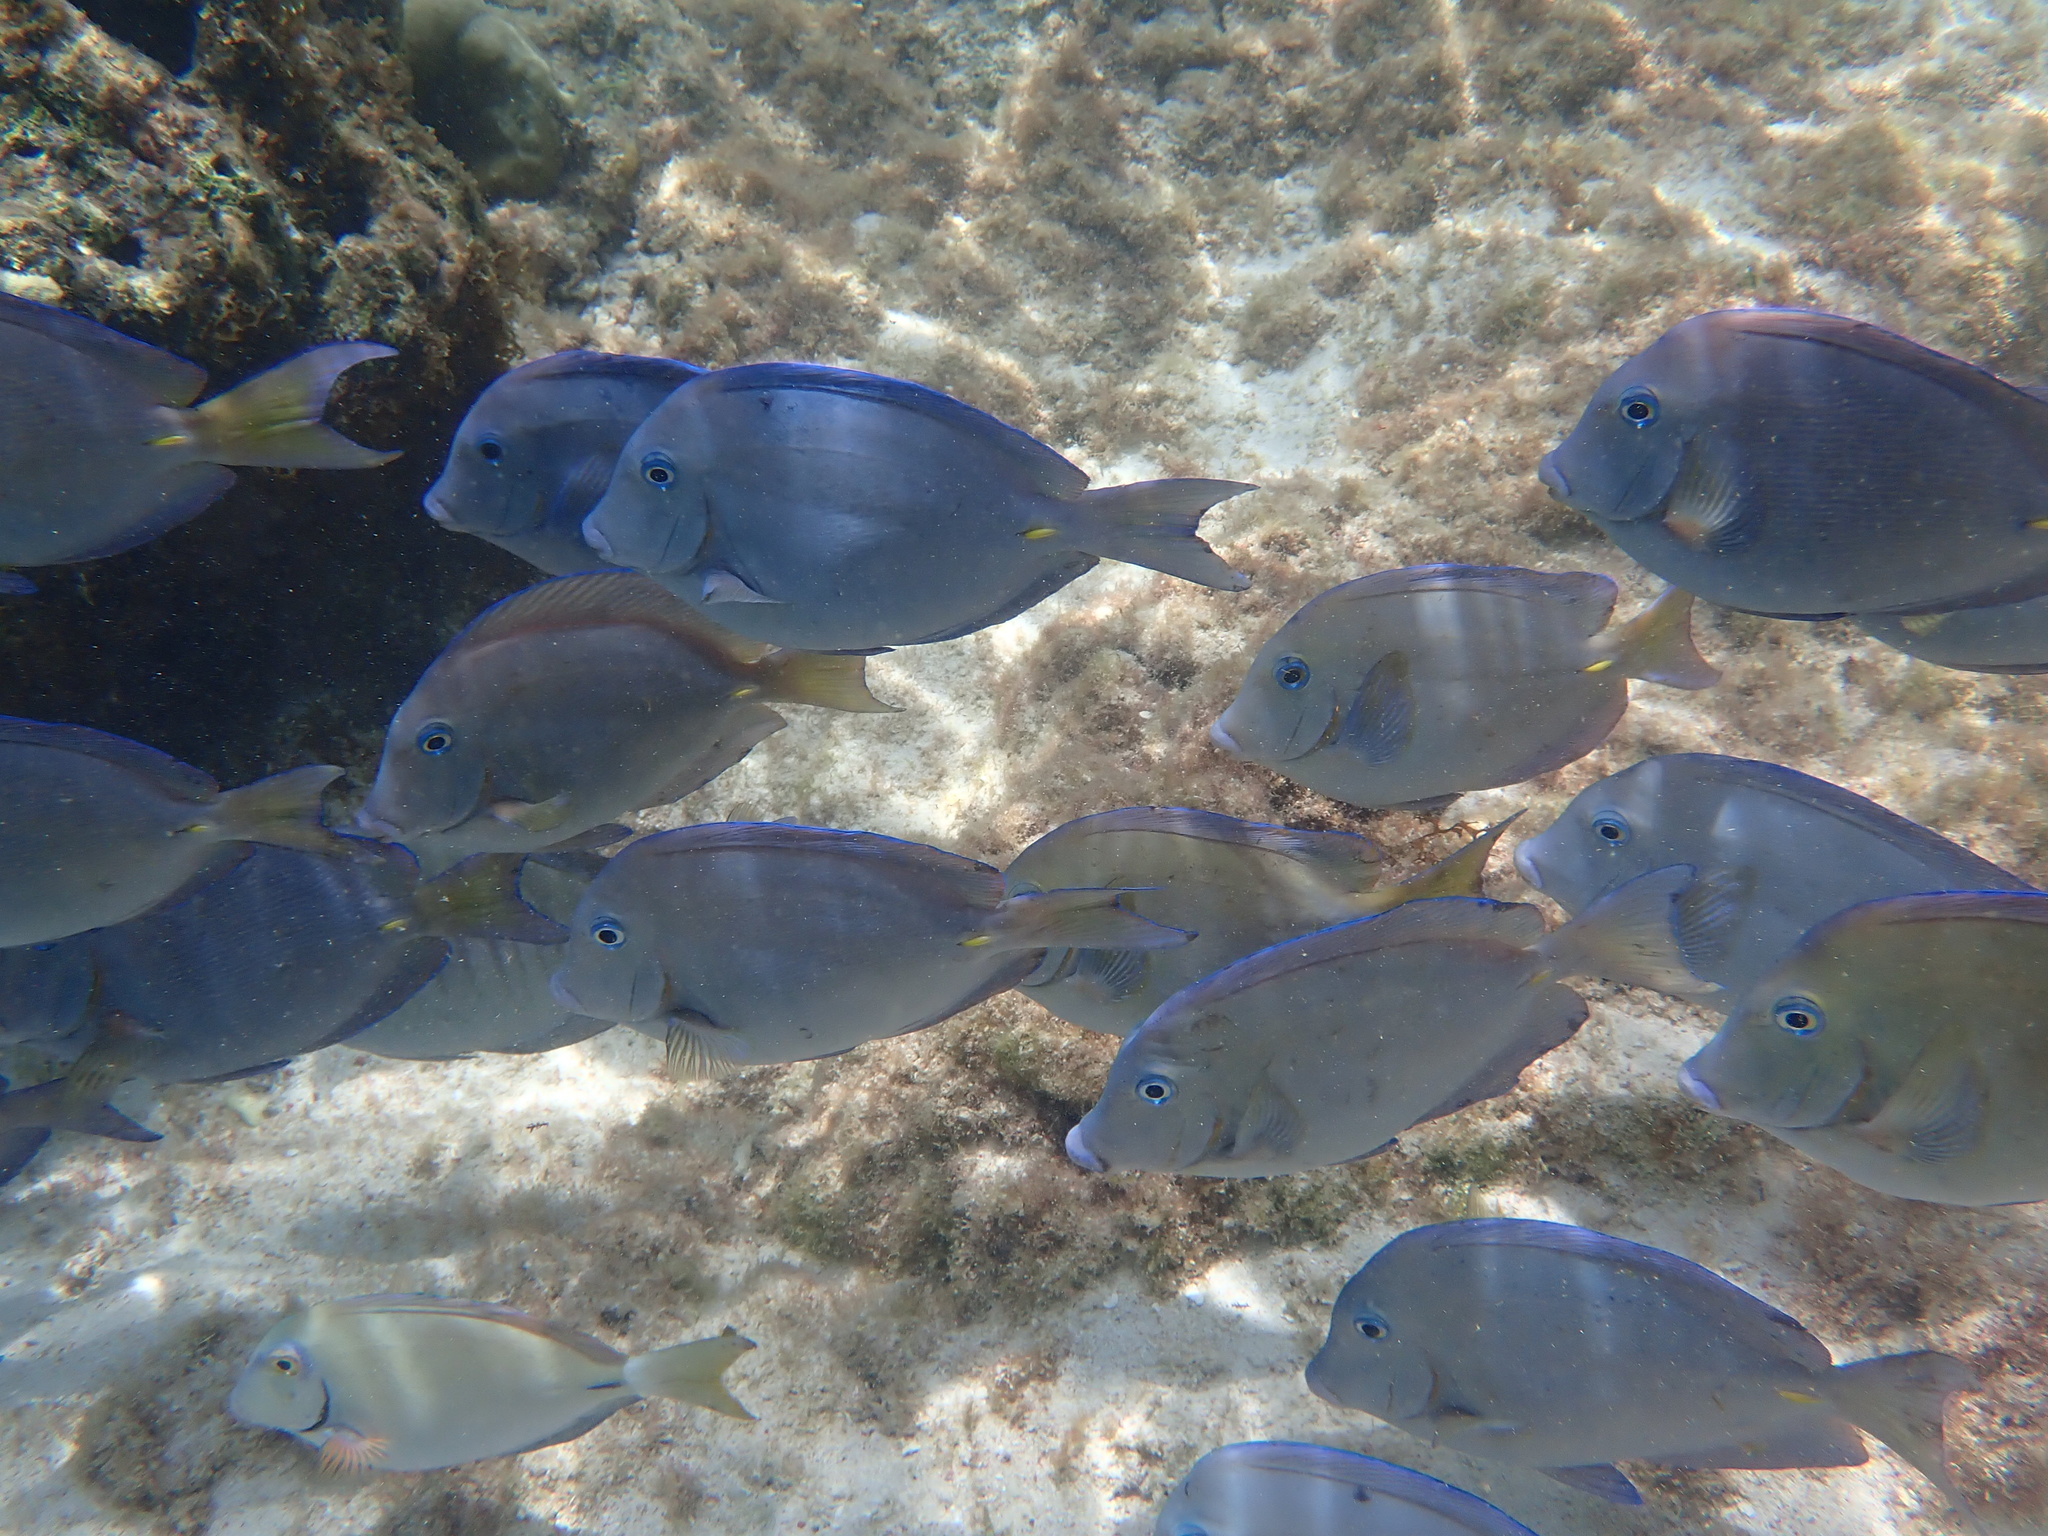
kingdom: Animalia
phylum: Chordata
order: Perciformes
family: Acanthuridae
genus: Acanthurus
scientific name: Acanthurus coeruleus
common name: Blue tang
